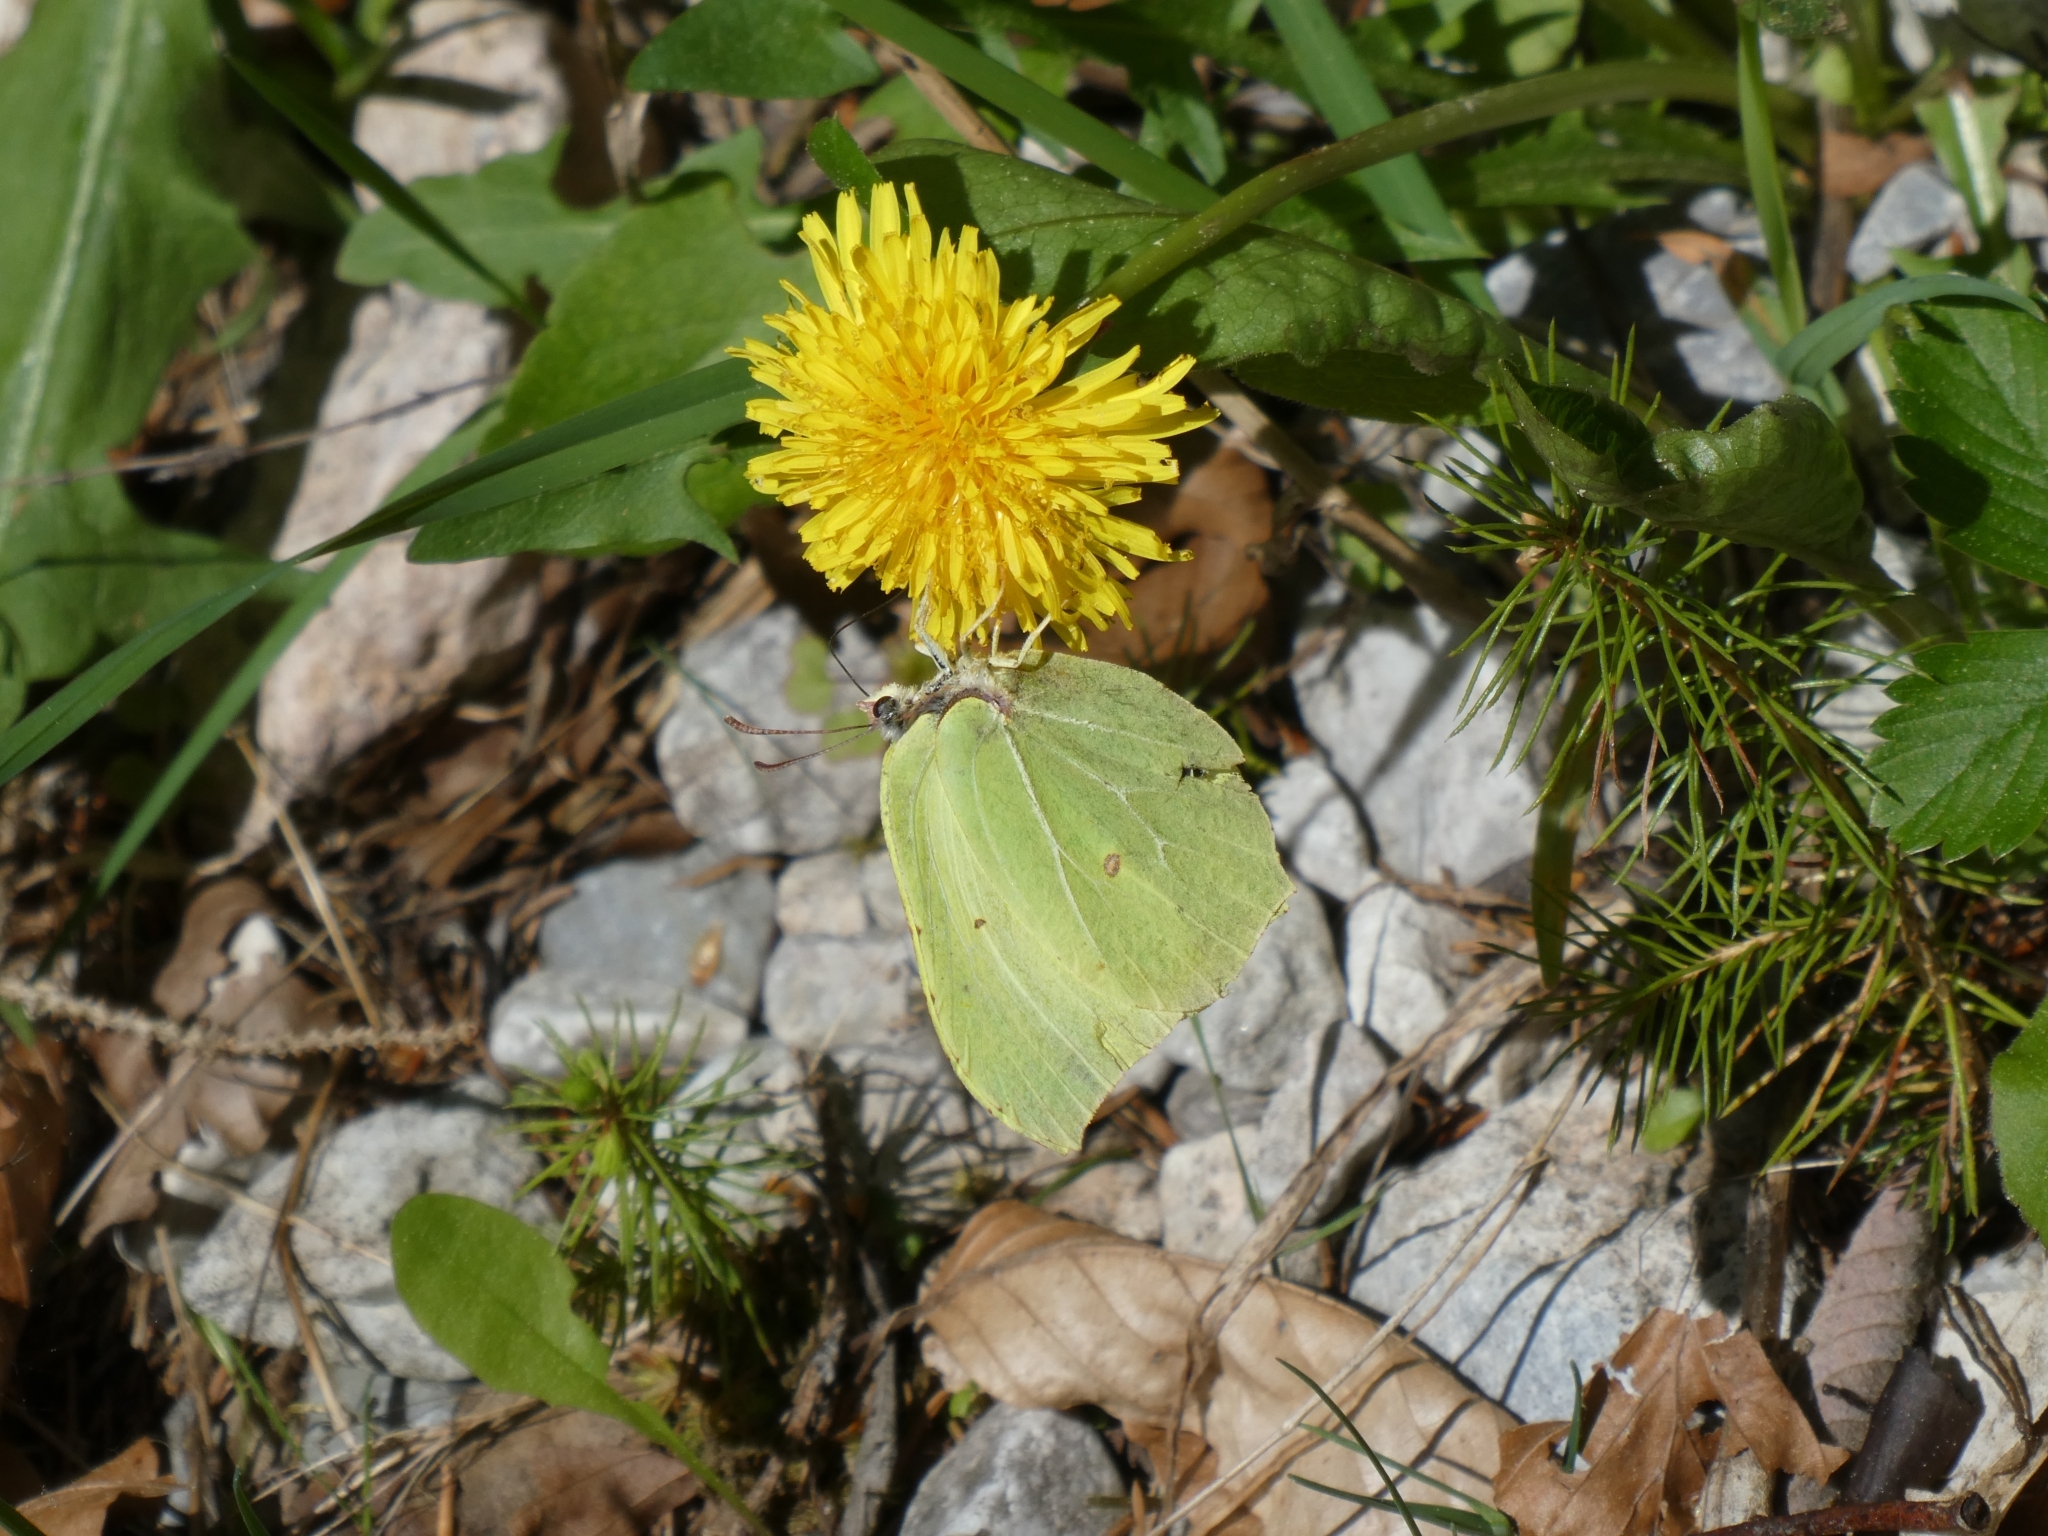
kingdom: Animalia
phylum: Arthropoda
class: Insecta
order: Lepidoptera
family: Pieridae
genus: Gonepteryx
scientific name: Gonepteryx rhamni
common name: Brimstone
